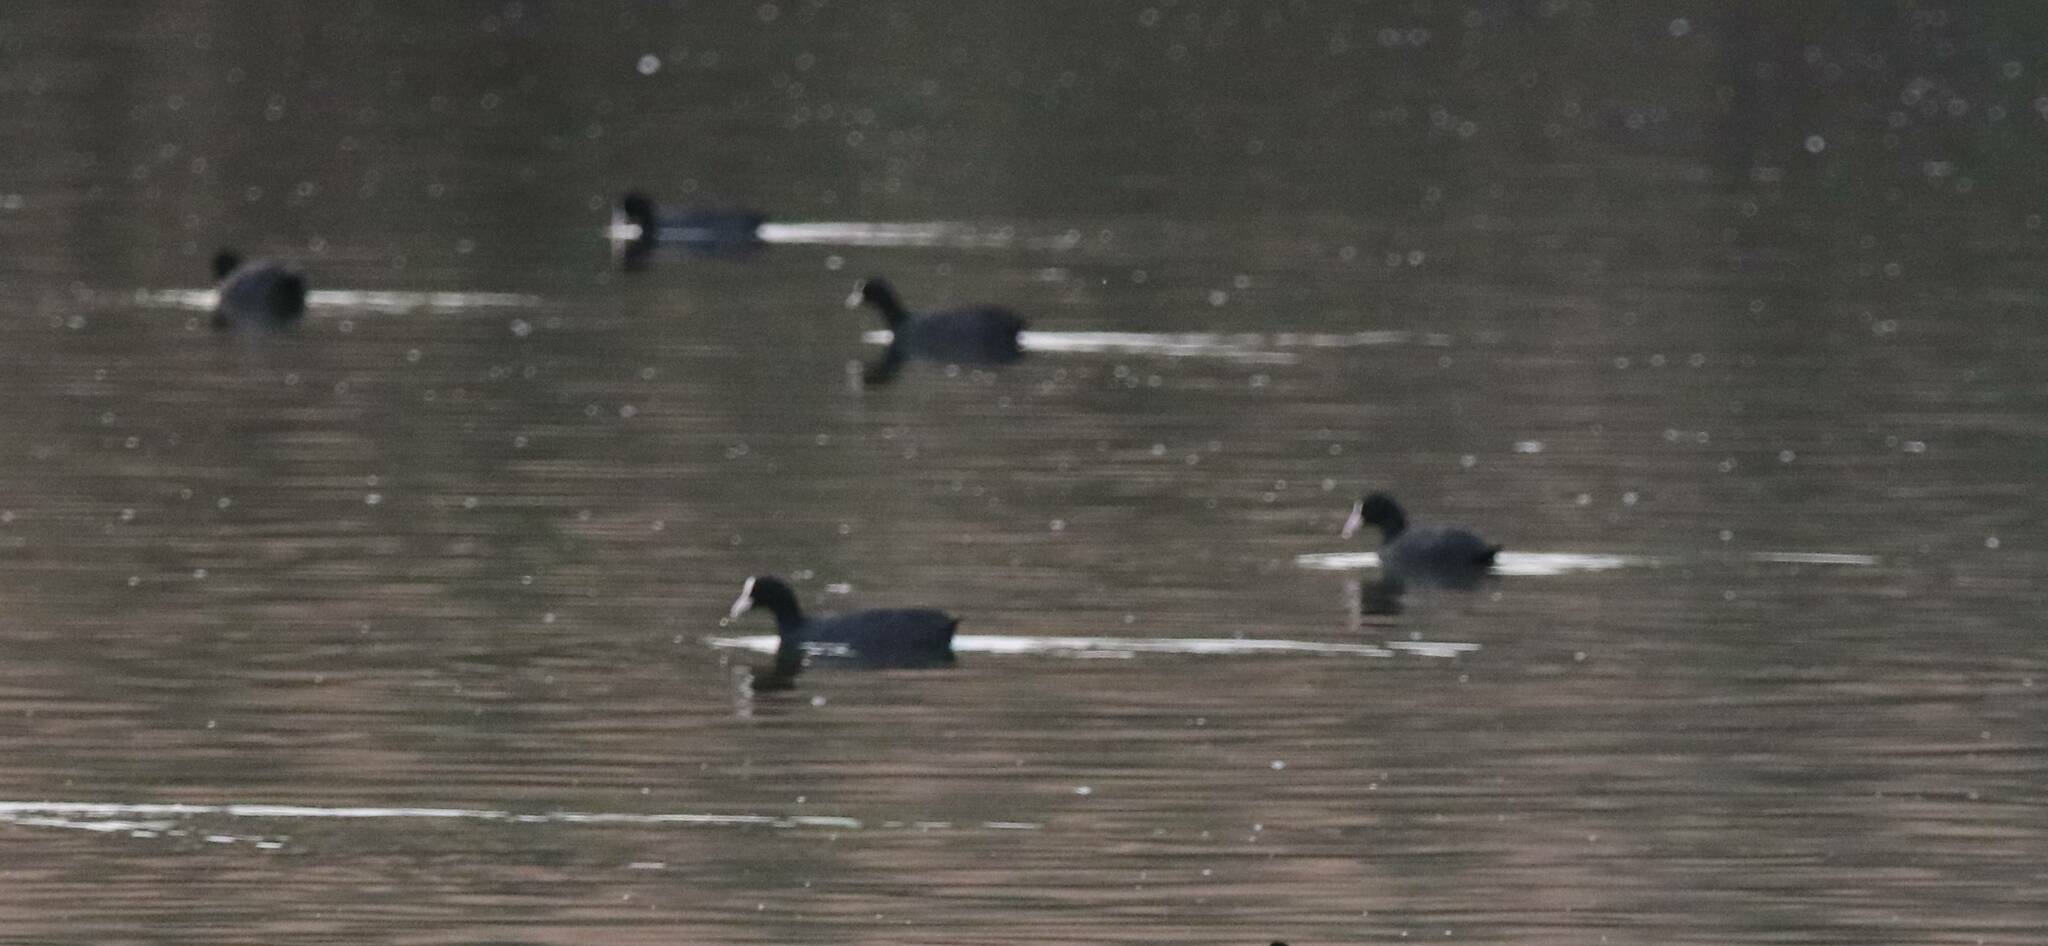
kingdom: Animalia
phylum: Chordata
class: Aves
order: Gruiformes
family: Rallidae
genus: Fulica
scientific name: Fulica atra
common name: Eurasian coot
